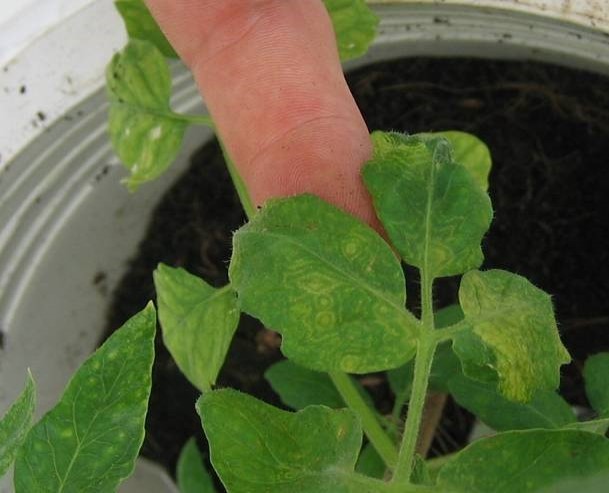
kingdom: Viruses
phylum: Negarnaviricota
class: Ellioviricetes
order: Bunyavirales
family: Tospoviridae
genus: Orthotospovirus
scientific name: Orthotospovirus capsiciflavi
